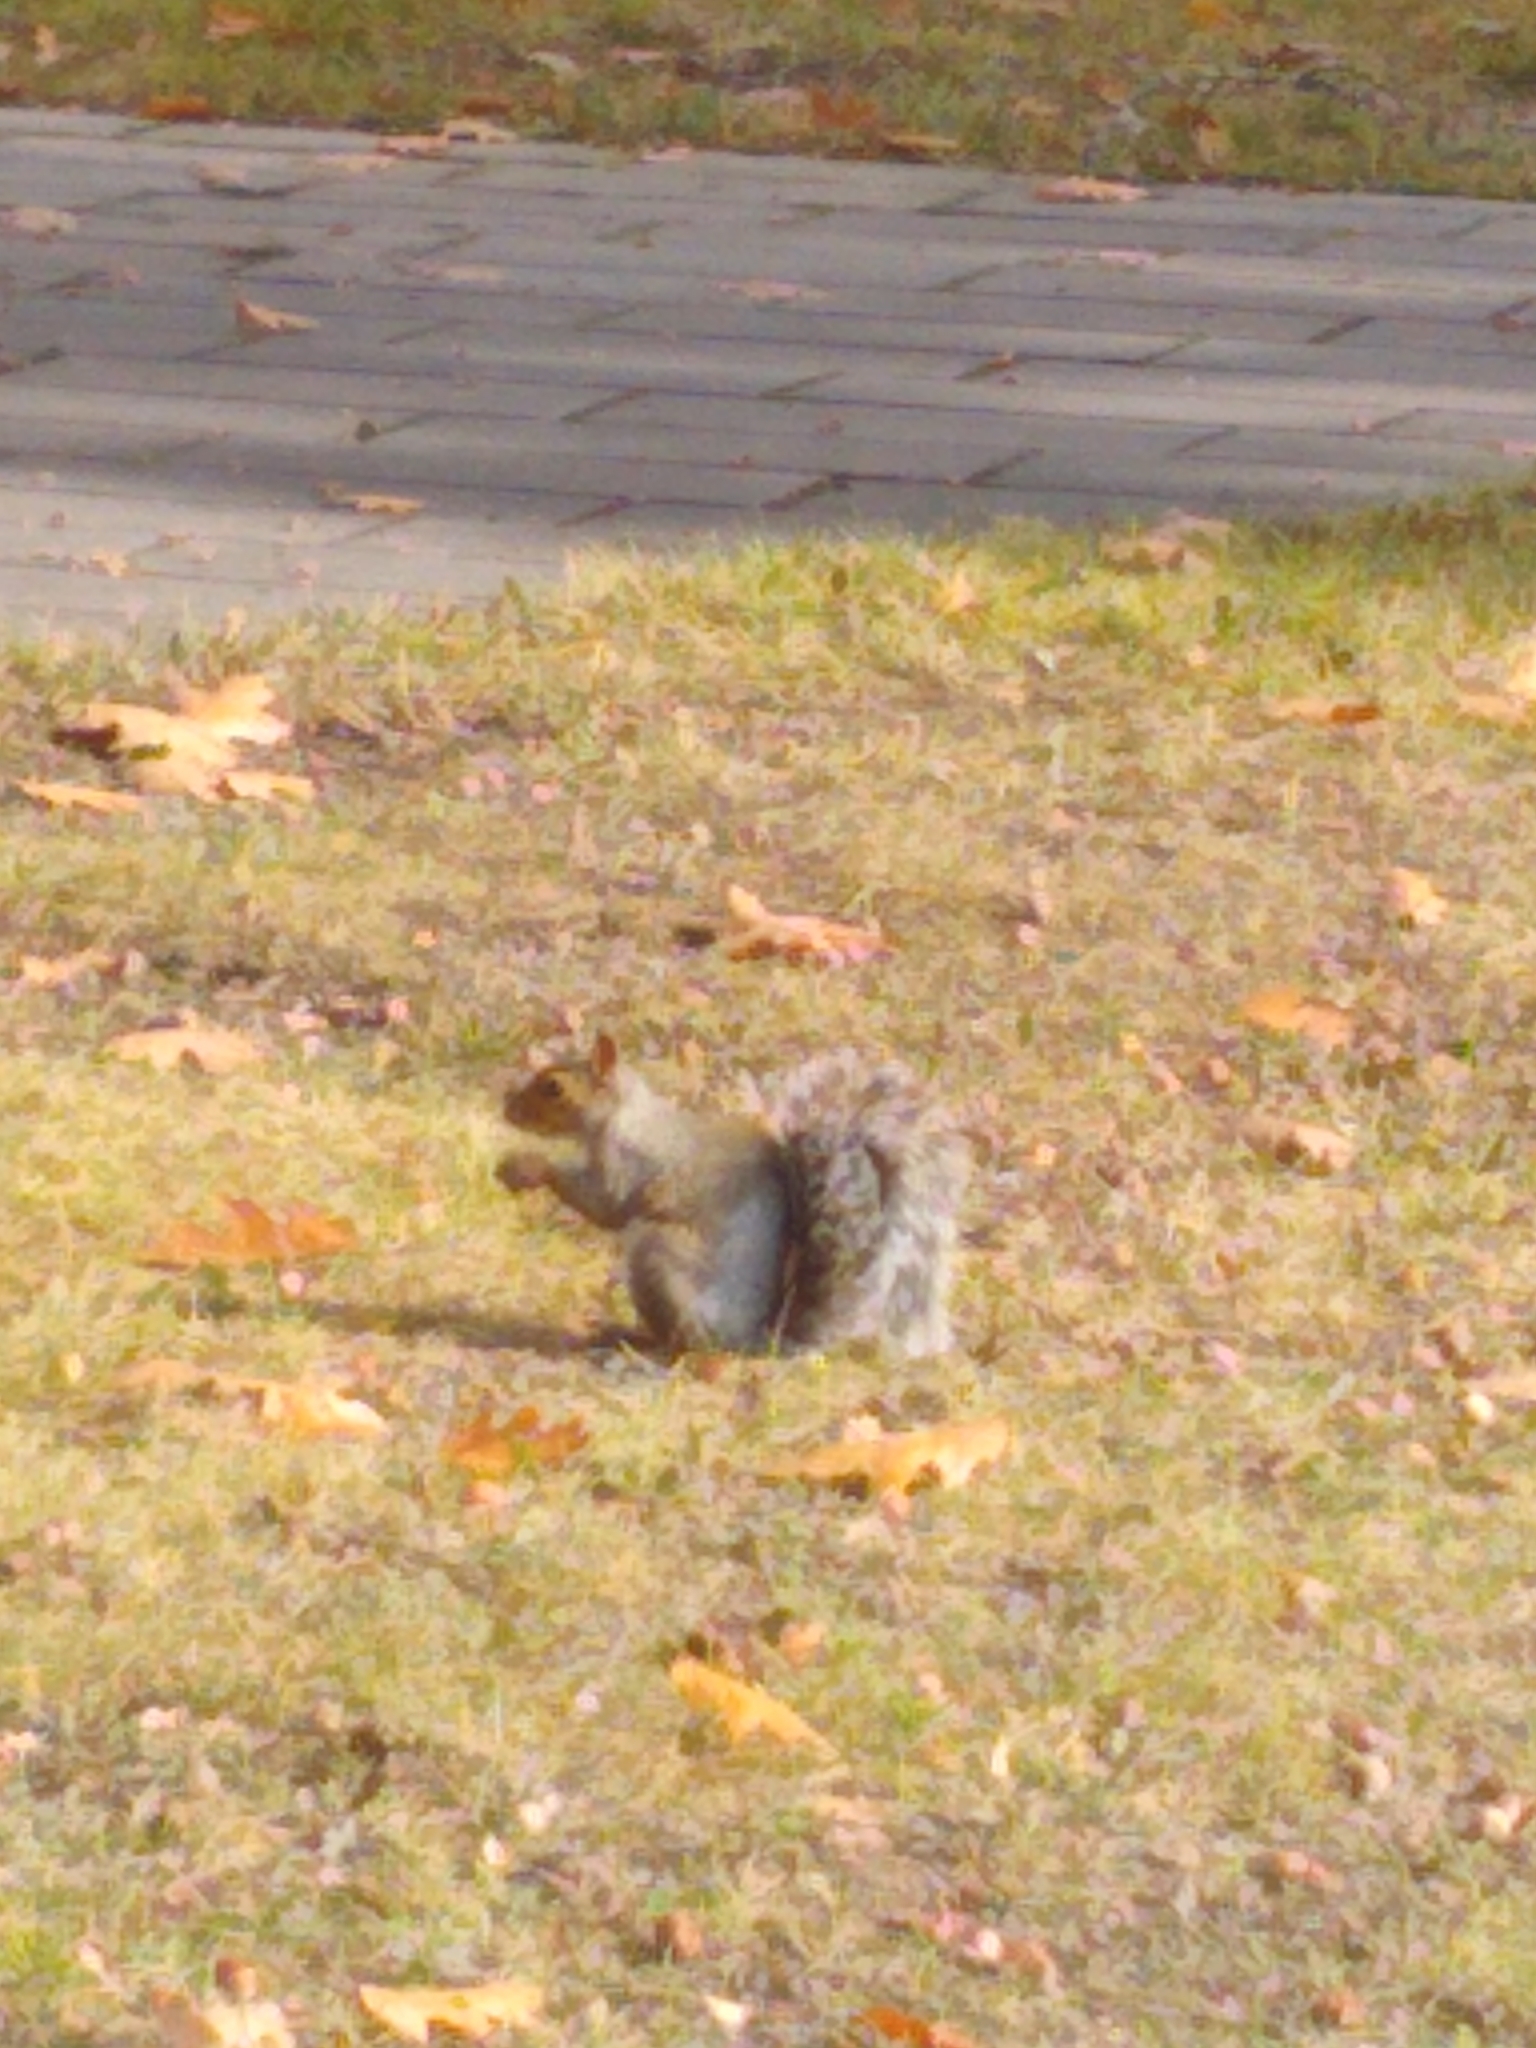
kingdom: Animalia
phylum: Chordata
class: Mammalia
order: Rodentia
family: Sciuridae
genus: Sciurus
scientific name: Sciurus carolinensis
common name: Eastern gray squirrel
